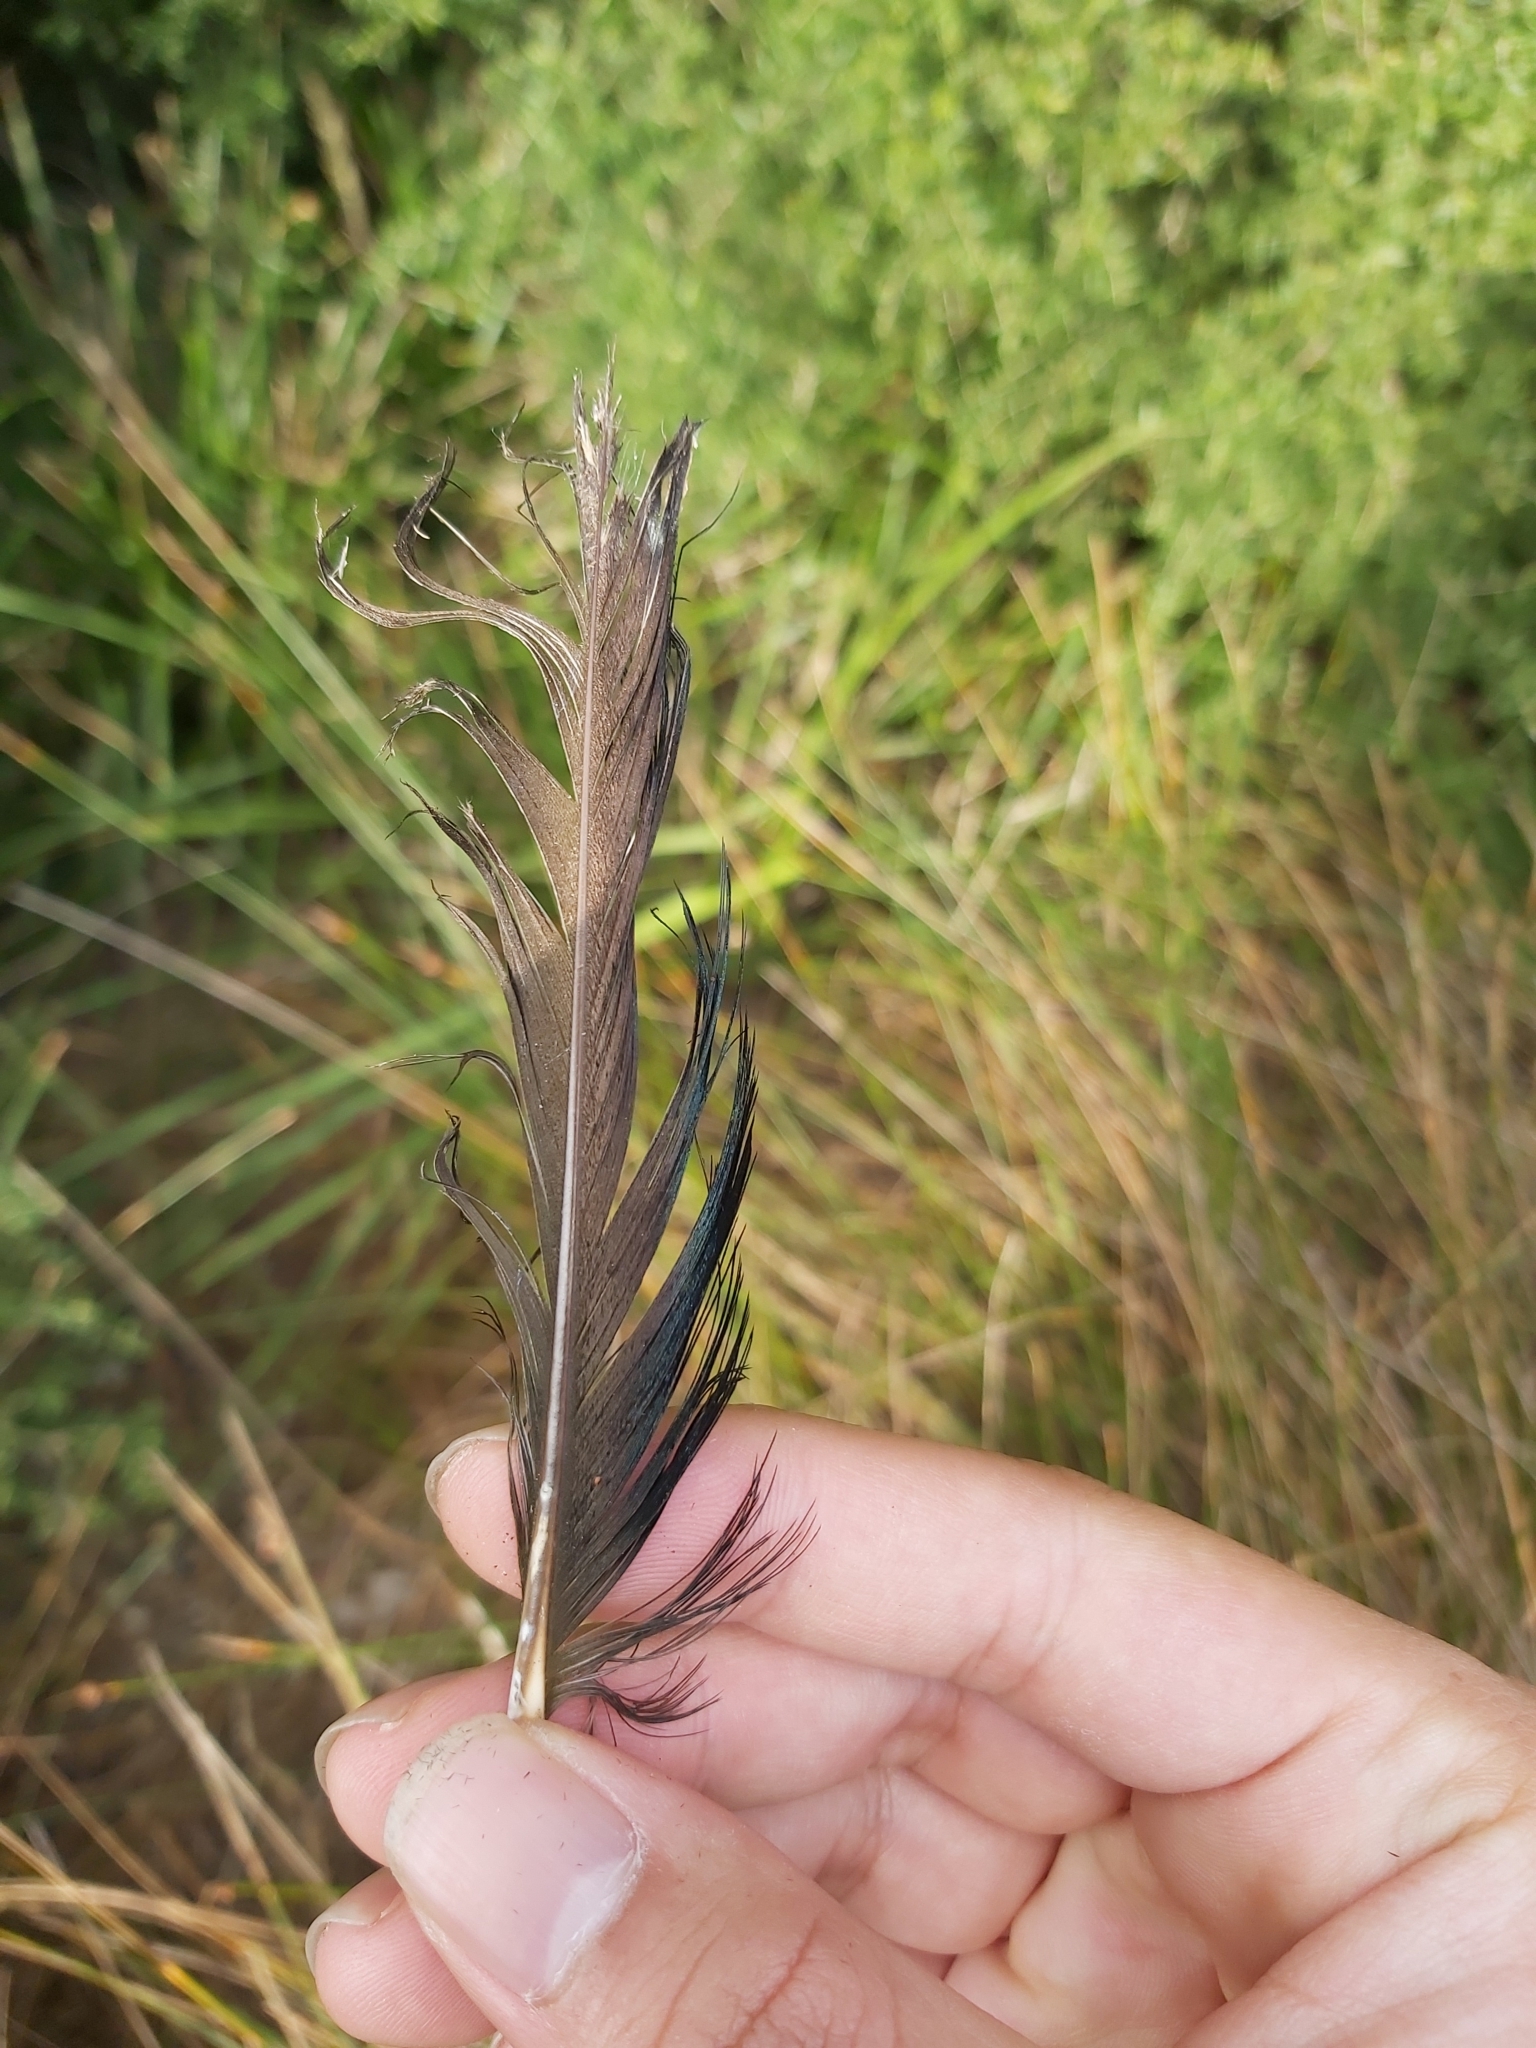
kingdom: Animalia
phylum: Chordata
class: Aves
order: Anseriformes
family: Anatidae
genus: Anas
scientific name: Anas superciliosa
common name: Pacific black duck
